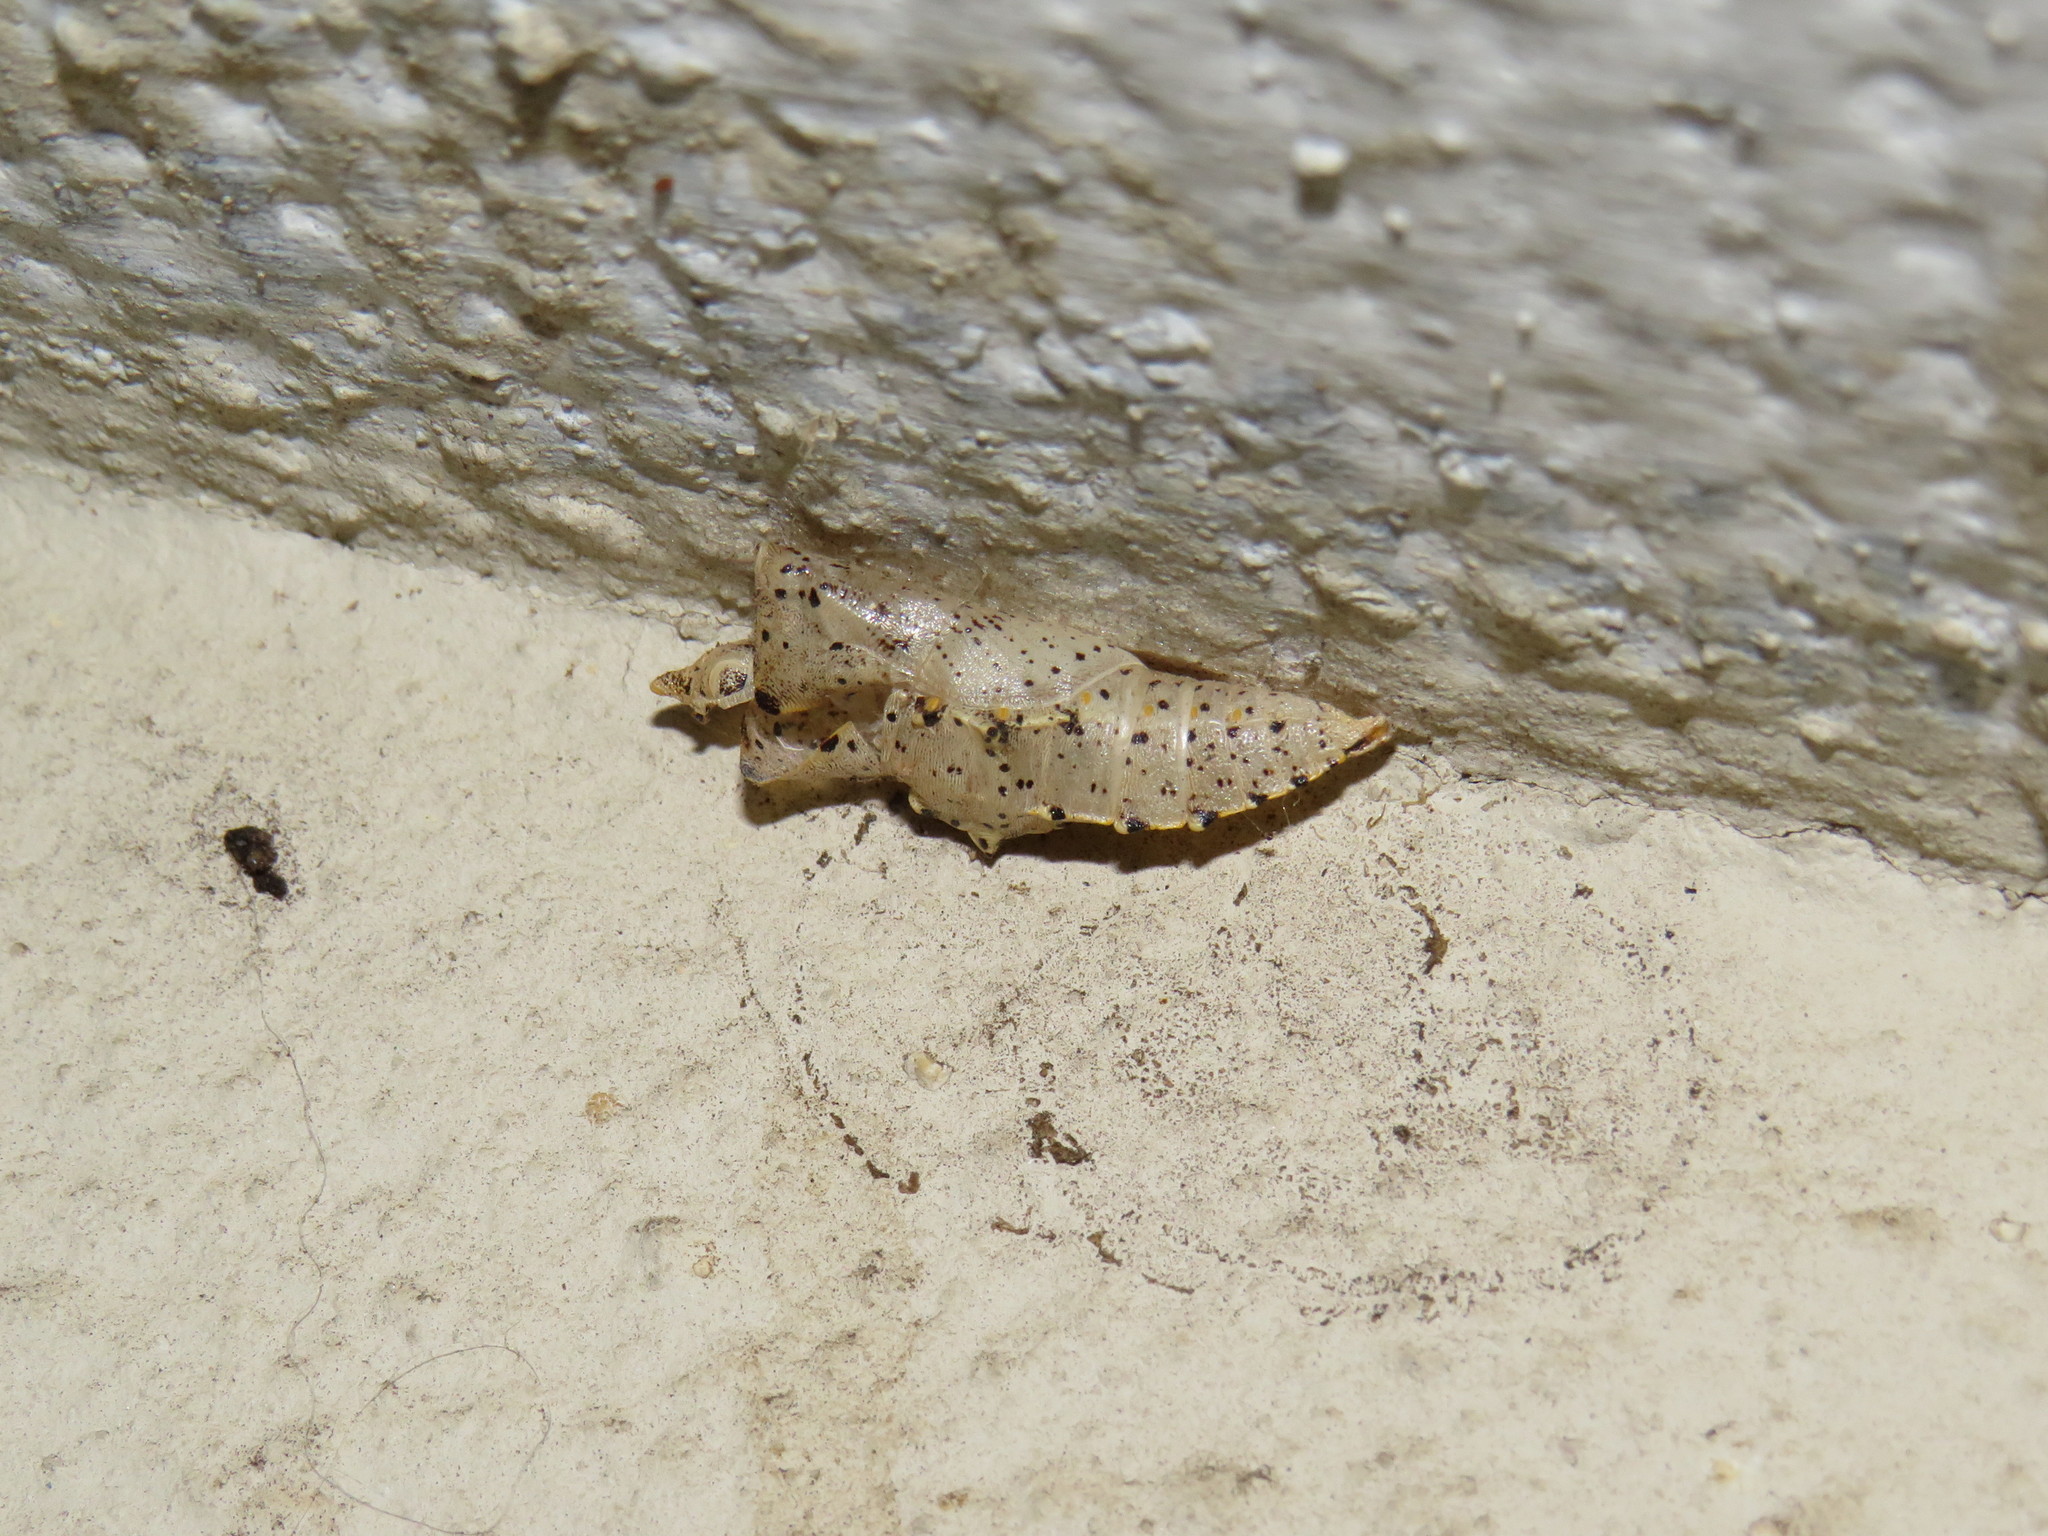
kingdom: Animalia
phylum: Arthropoda
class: Insecta
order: Lepidoptera
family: Pieridae
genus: Pieris
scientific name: Pieris brassicae
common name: Large white
